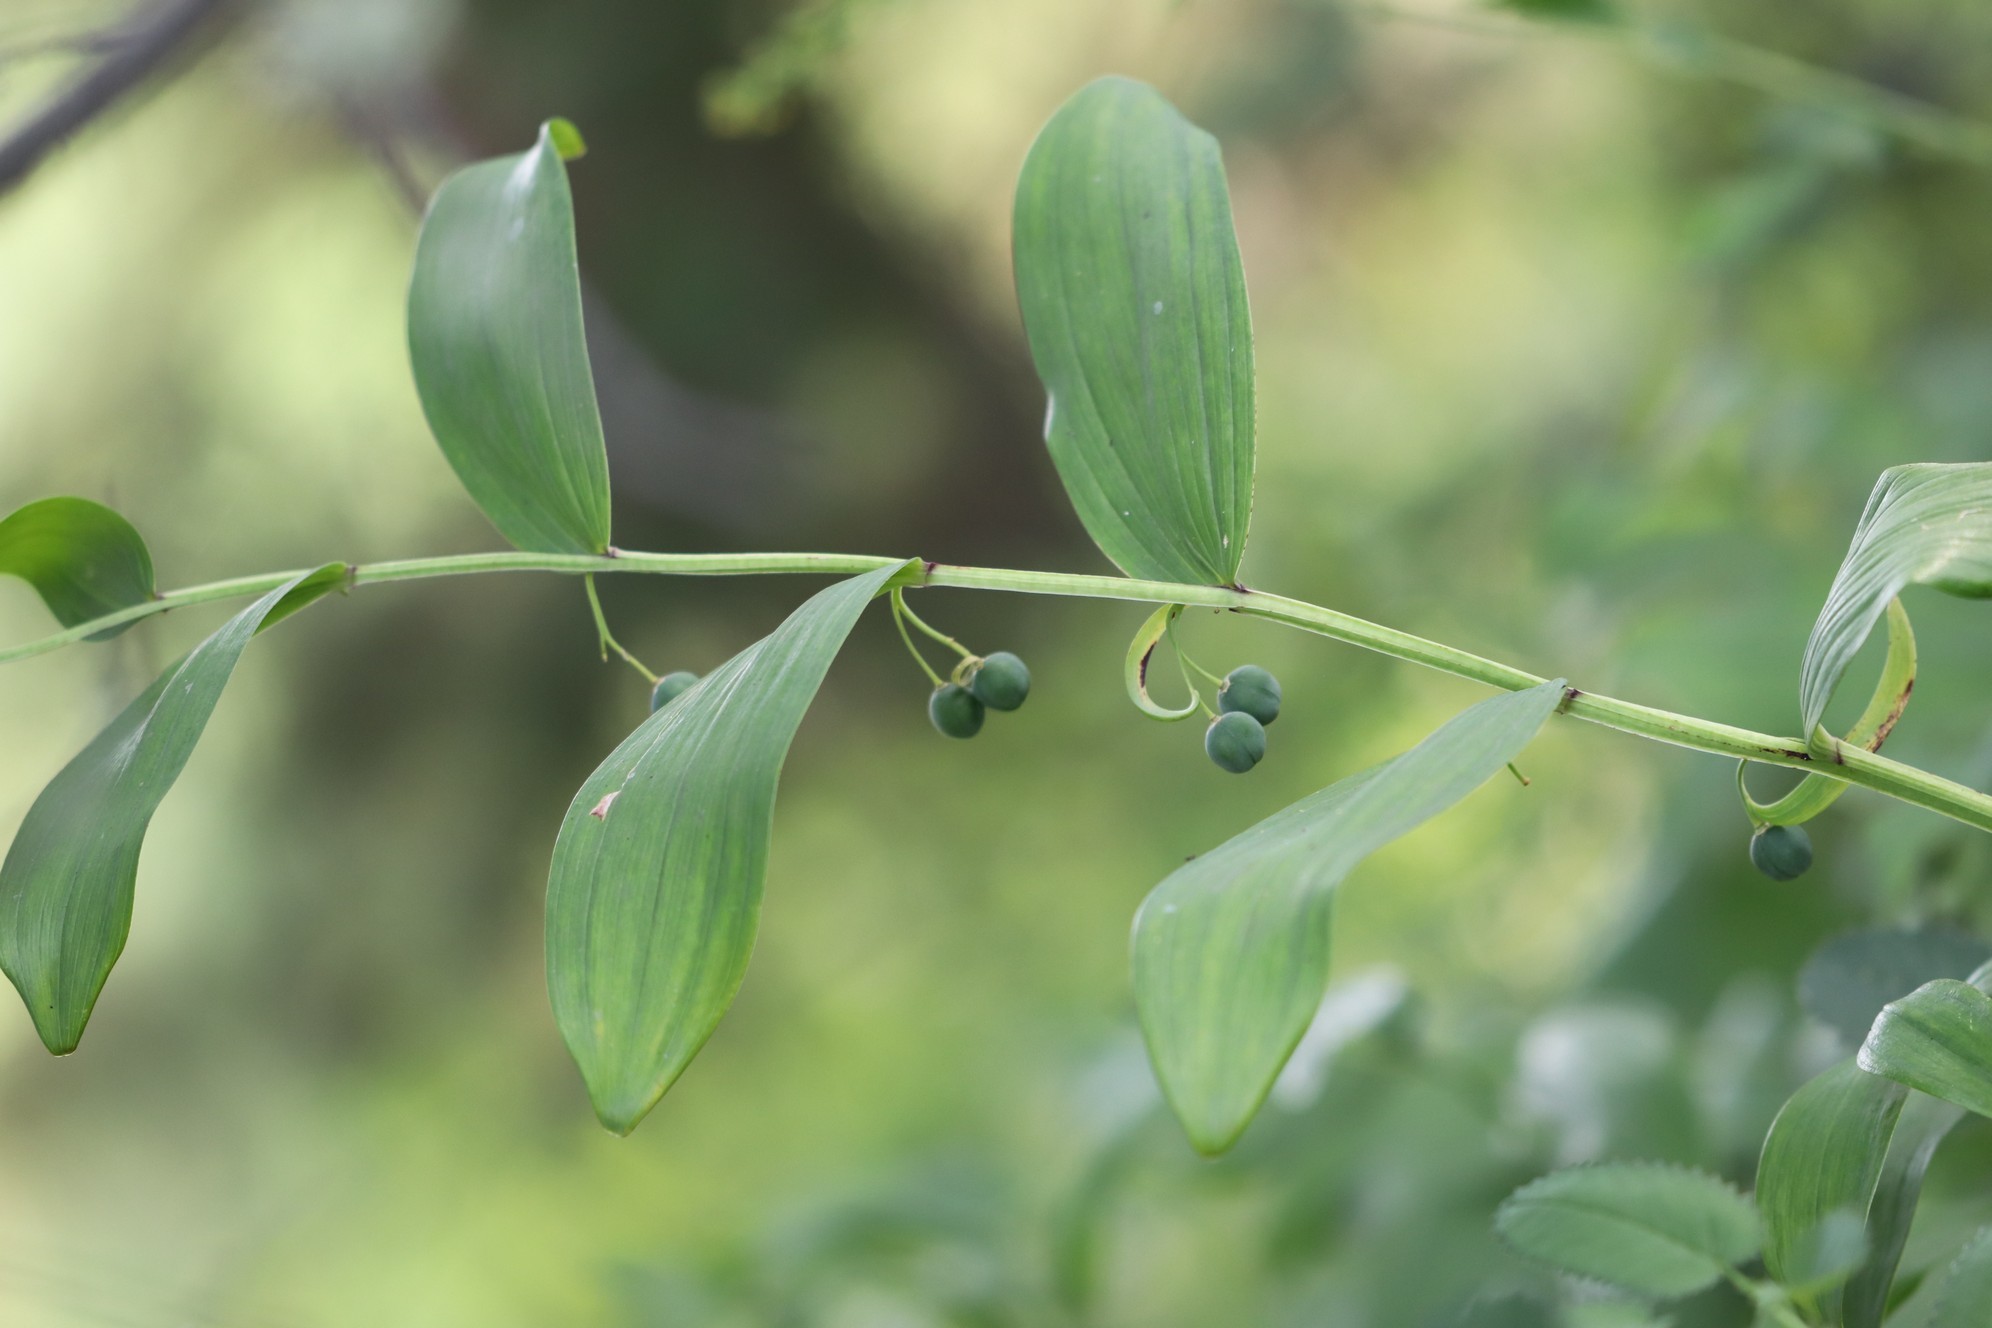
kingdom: Plantae
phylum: Tracheophyta
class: Liliopsida
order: Asparagales
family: Asparagaceae
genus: Polygonatum
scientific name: Polygonatum odoratum
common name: Angular solomon's-seal
